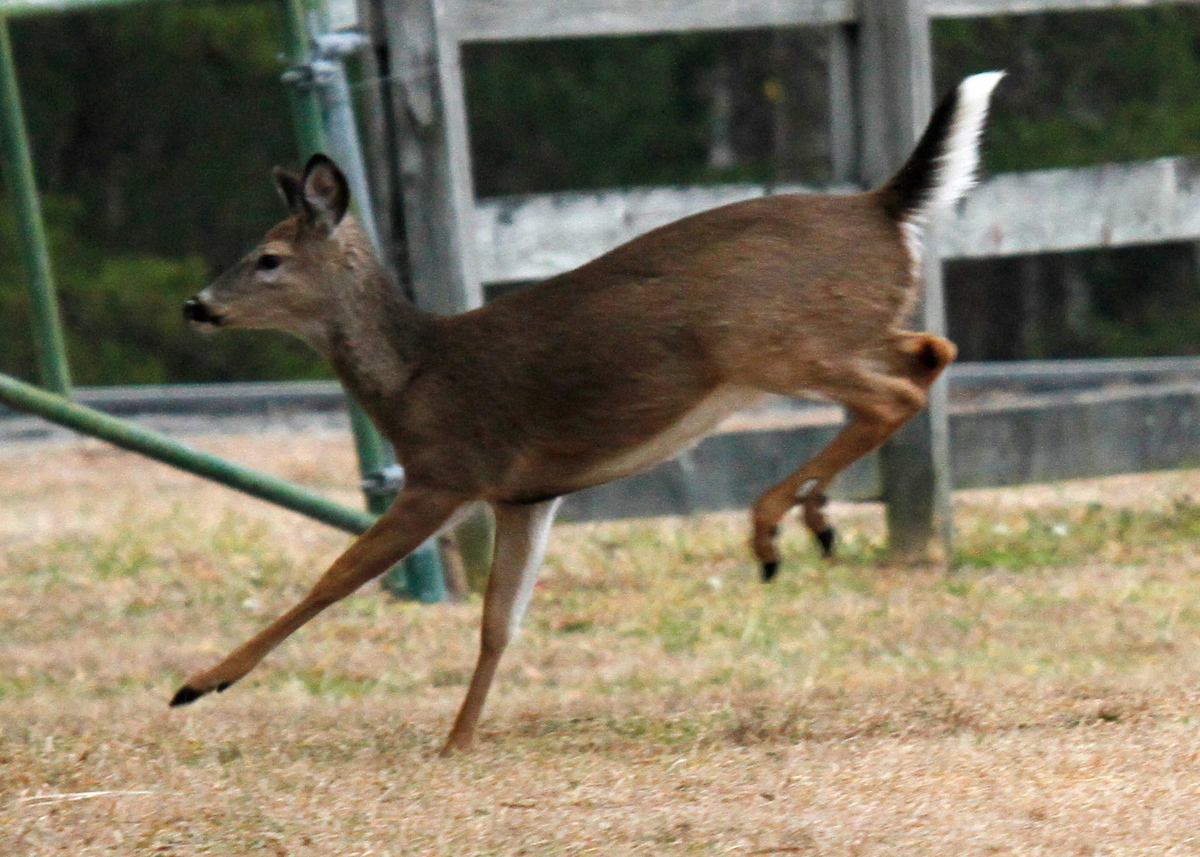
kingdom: Animalia
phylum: Chordata
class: Mammalia
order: Artiodactyla
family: Cervidae
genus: Odocoileus
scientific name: Odocoileus virginianus
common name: White-tailed deer
